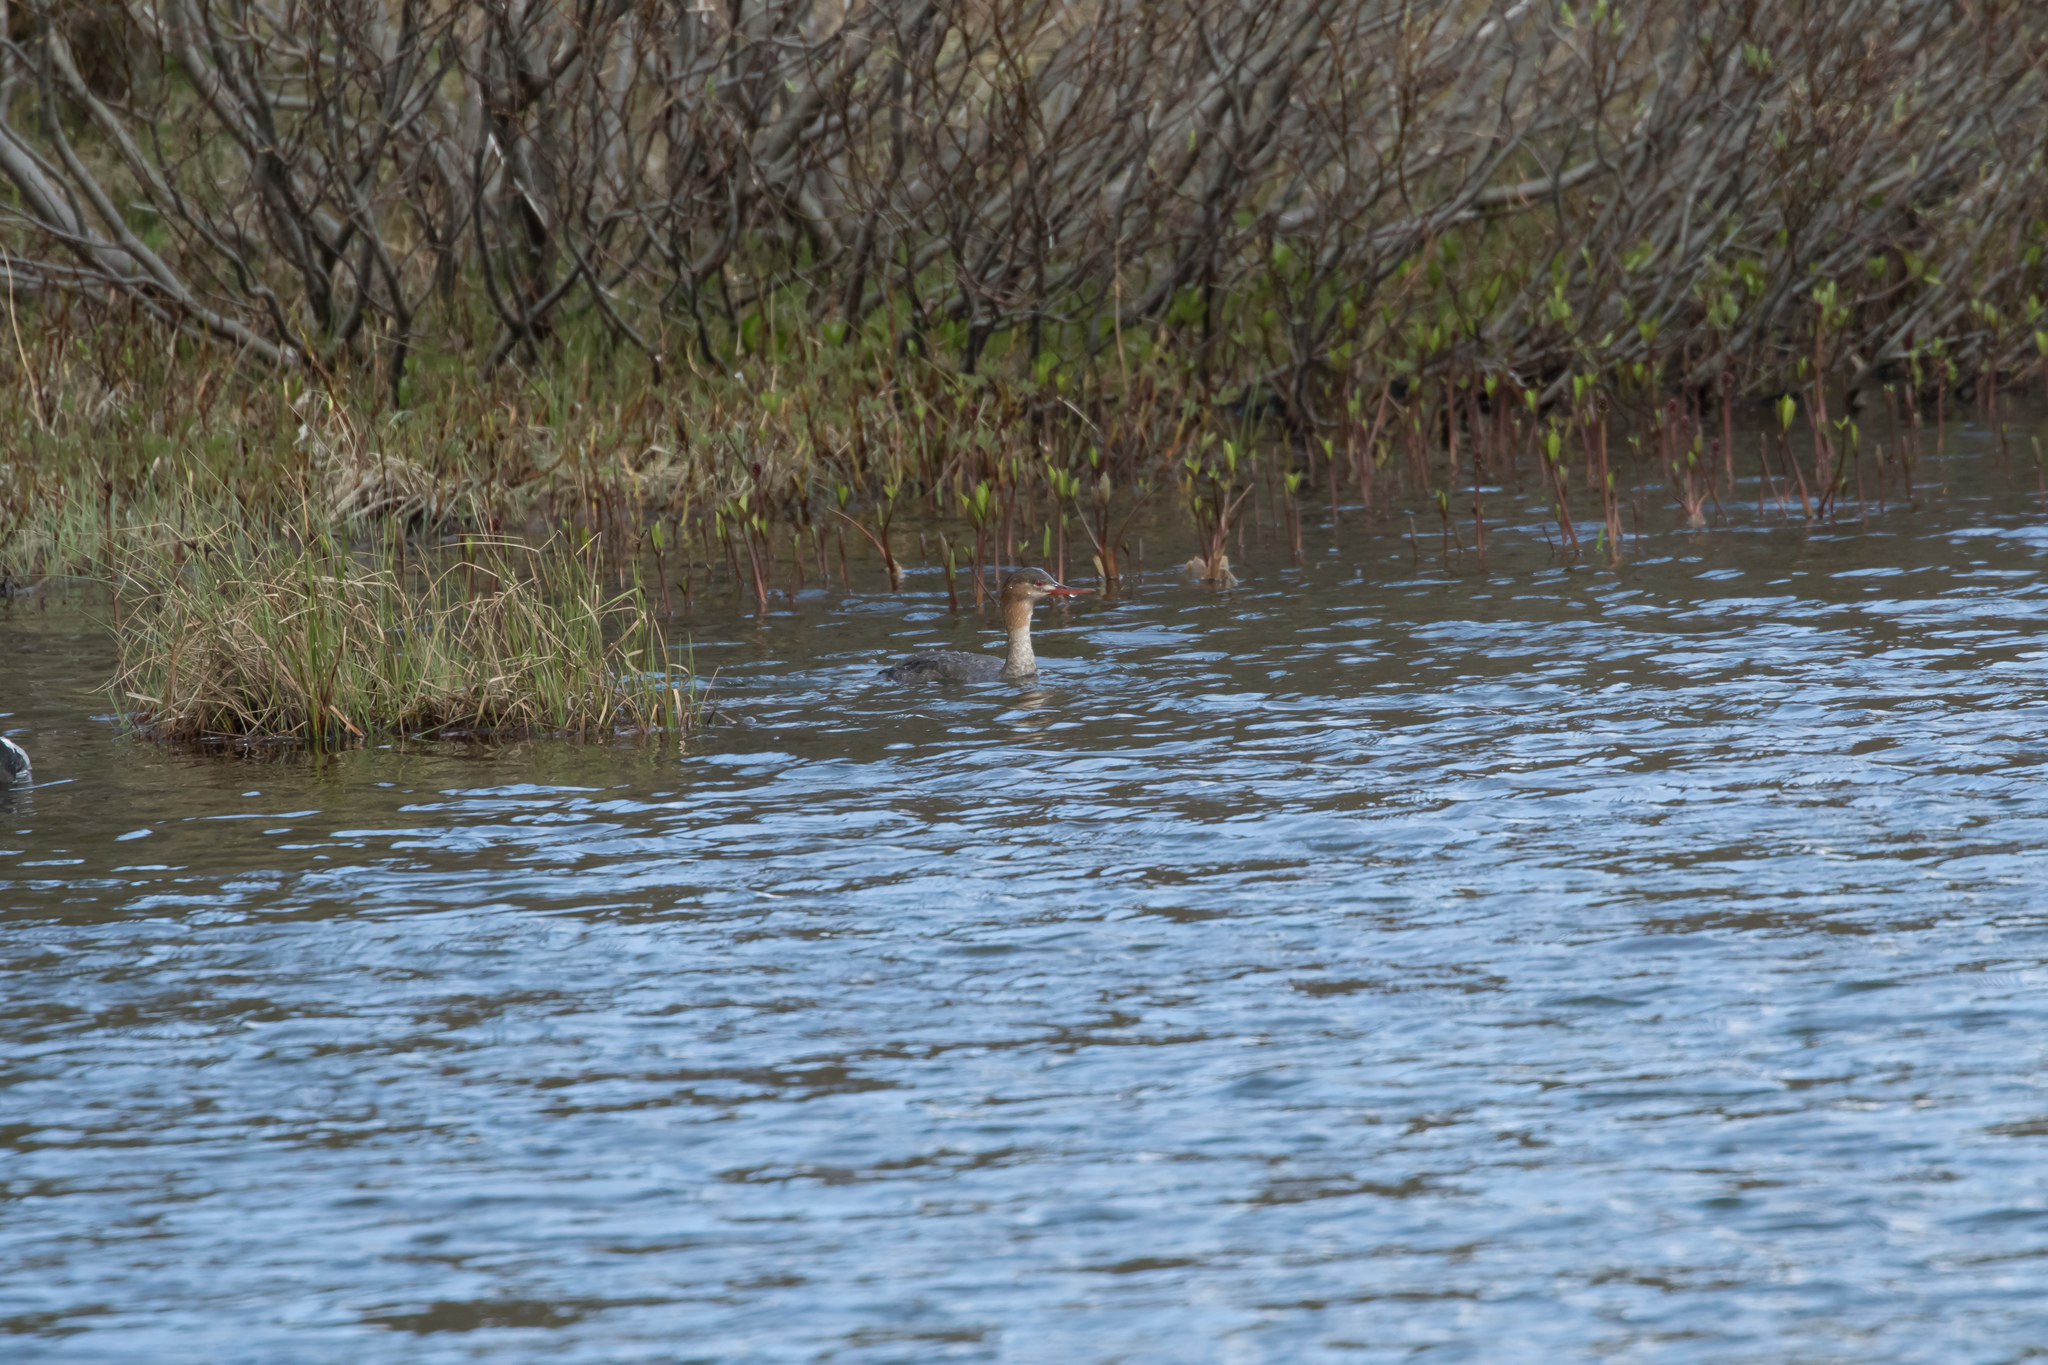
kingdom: Animalia
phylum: Chordata
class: Aves
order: Anseriformes
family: Anatidae
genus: Mergus
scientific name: Mergus serrator
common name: Red-breasted merganser
